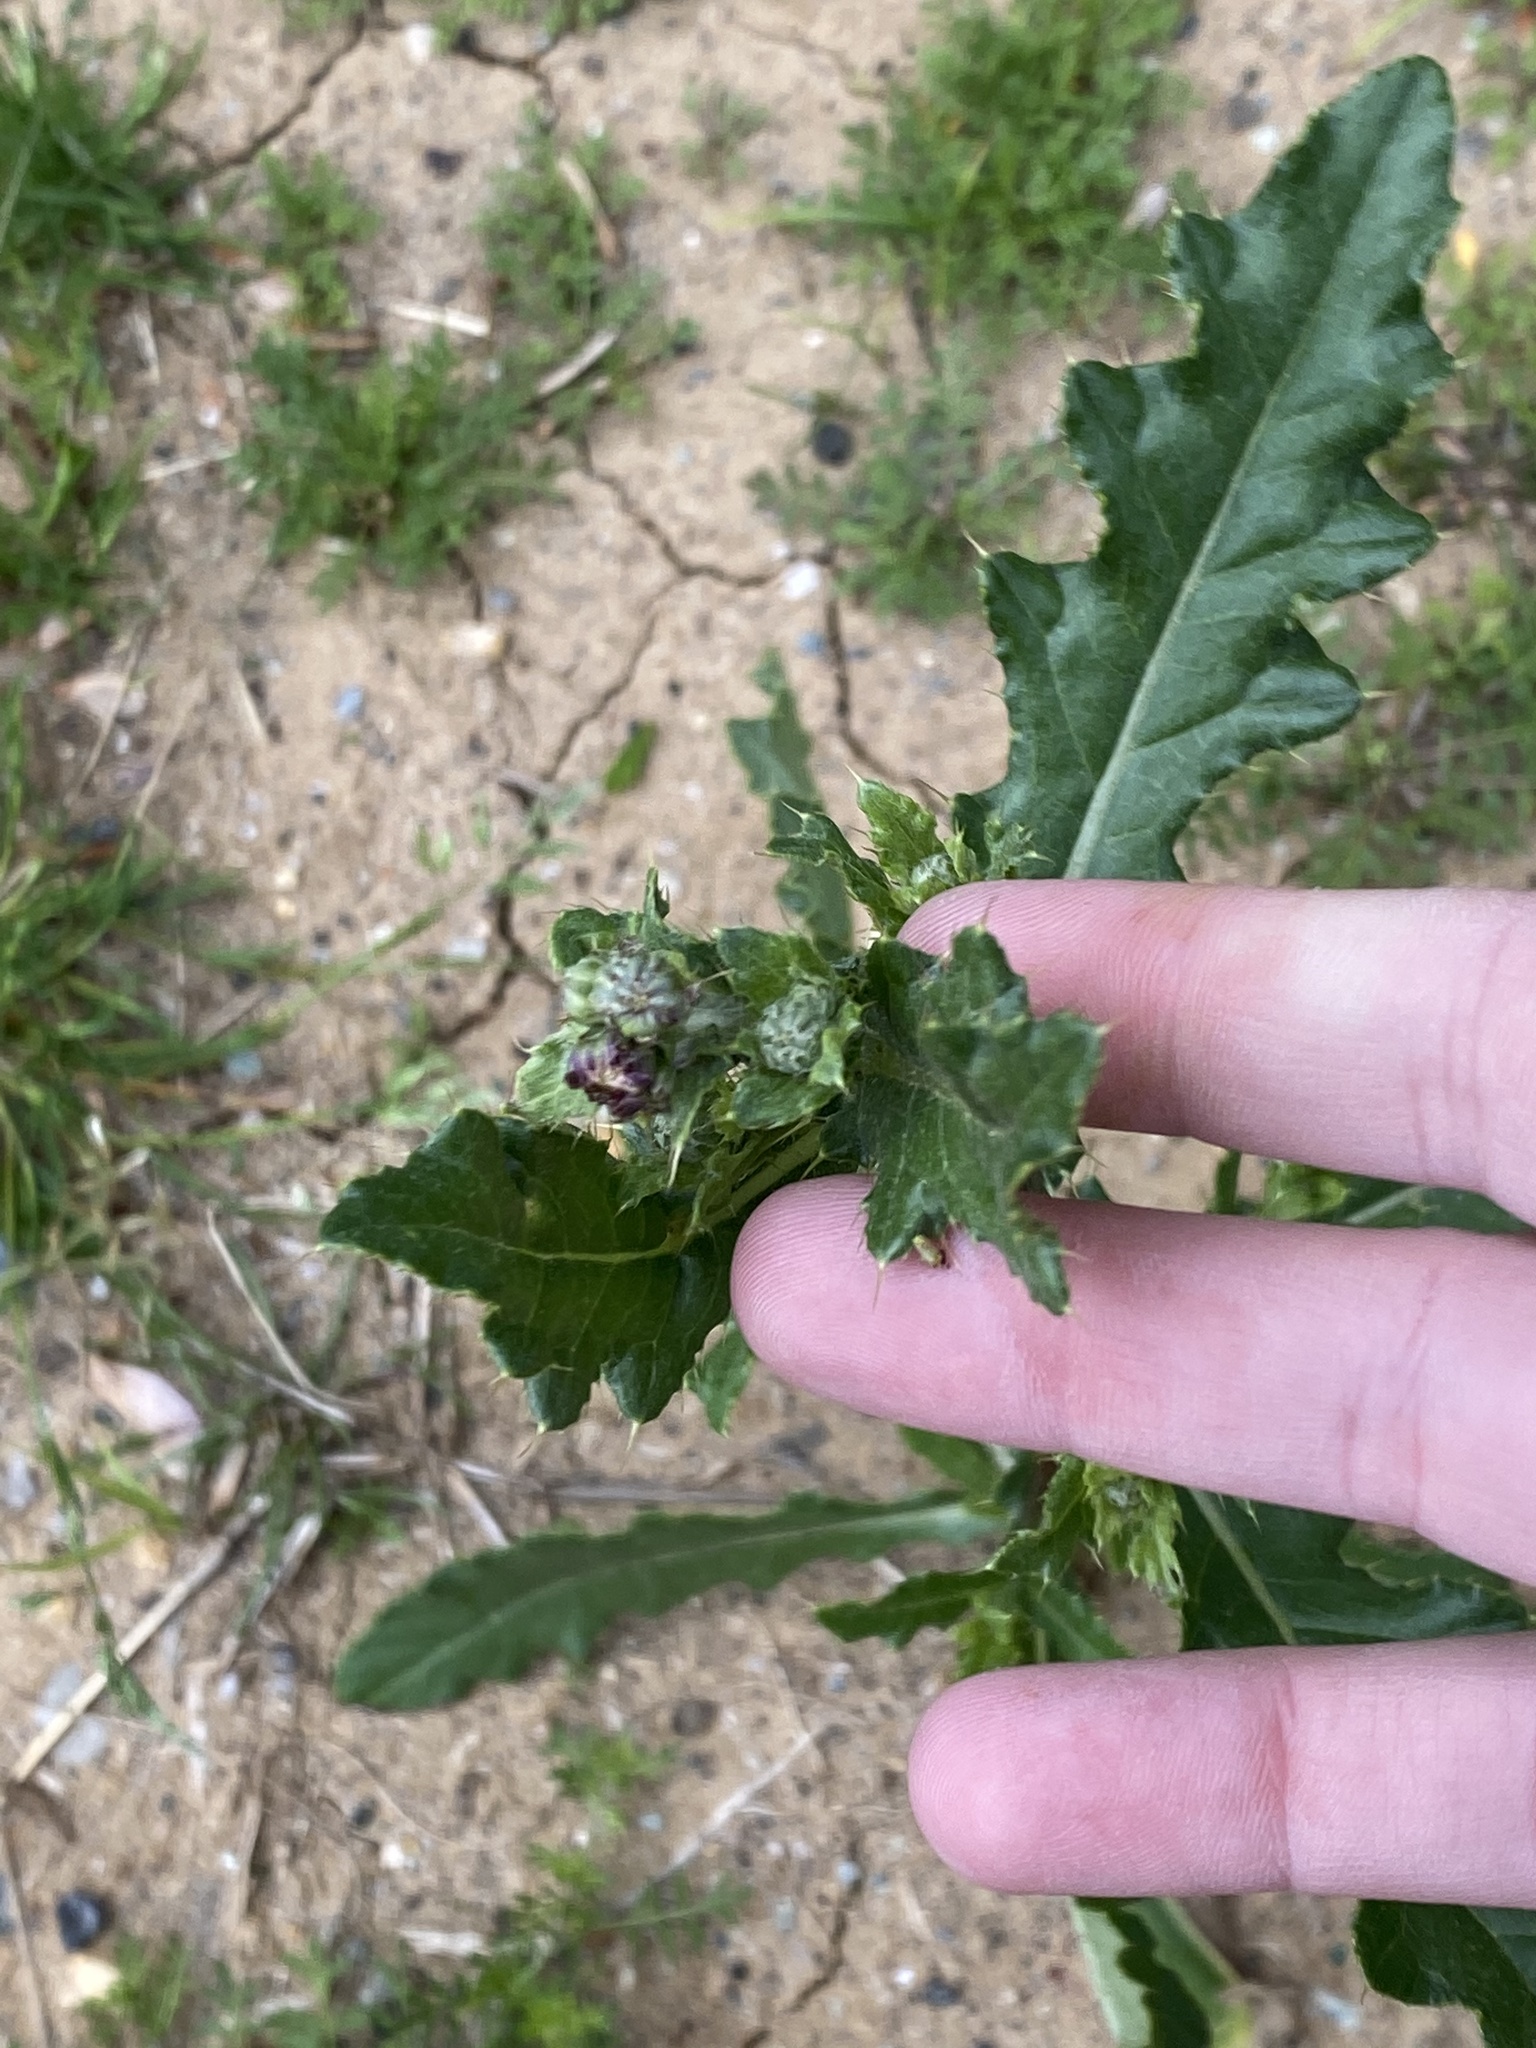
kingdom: Plantae
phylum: Tracheophyta
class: Magnoliopsida
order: Asterales
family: Asteraceae
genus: Cirsium
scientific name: Cirsium arvense
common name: Creeping thistle
